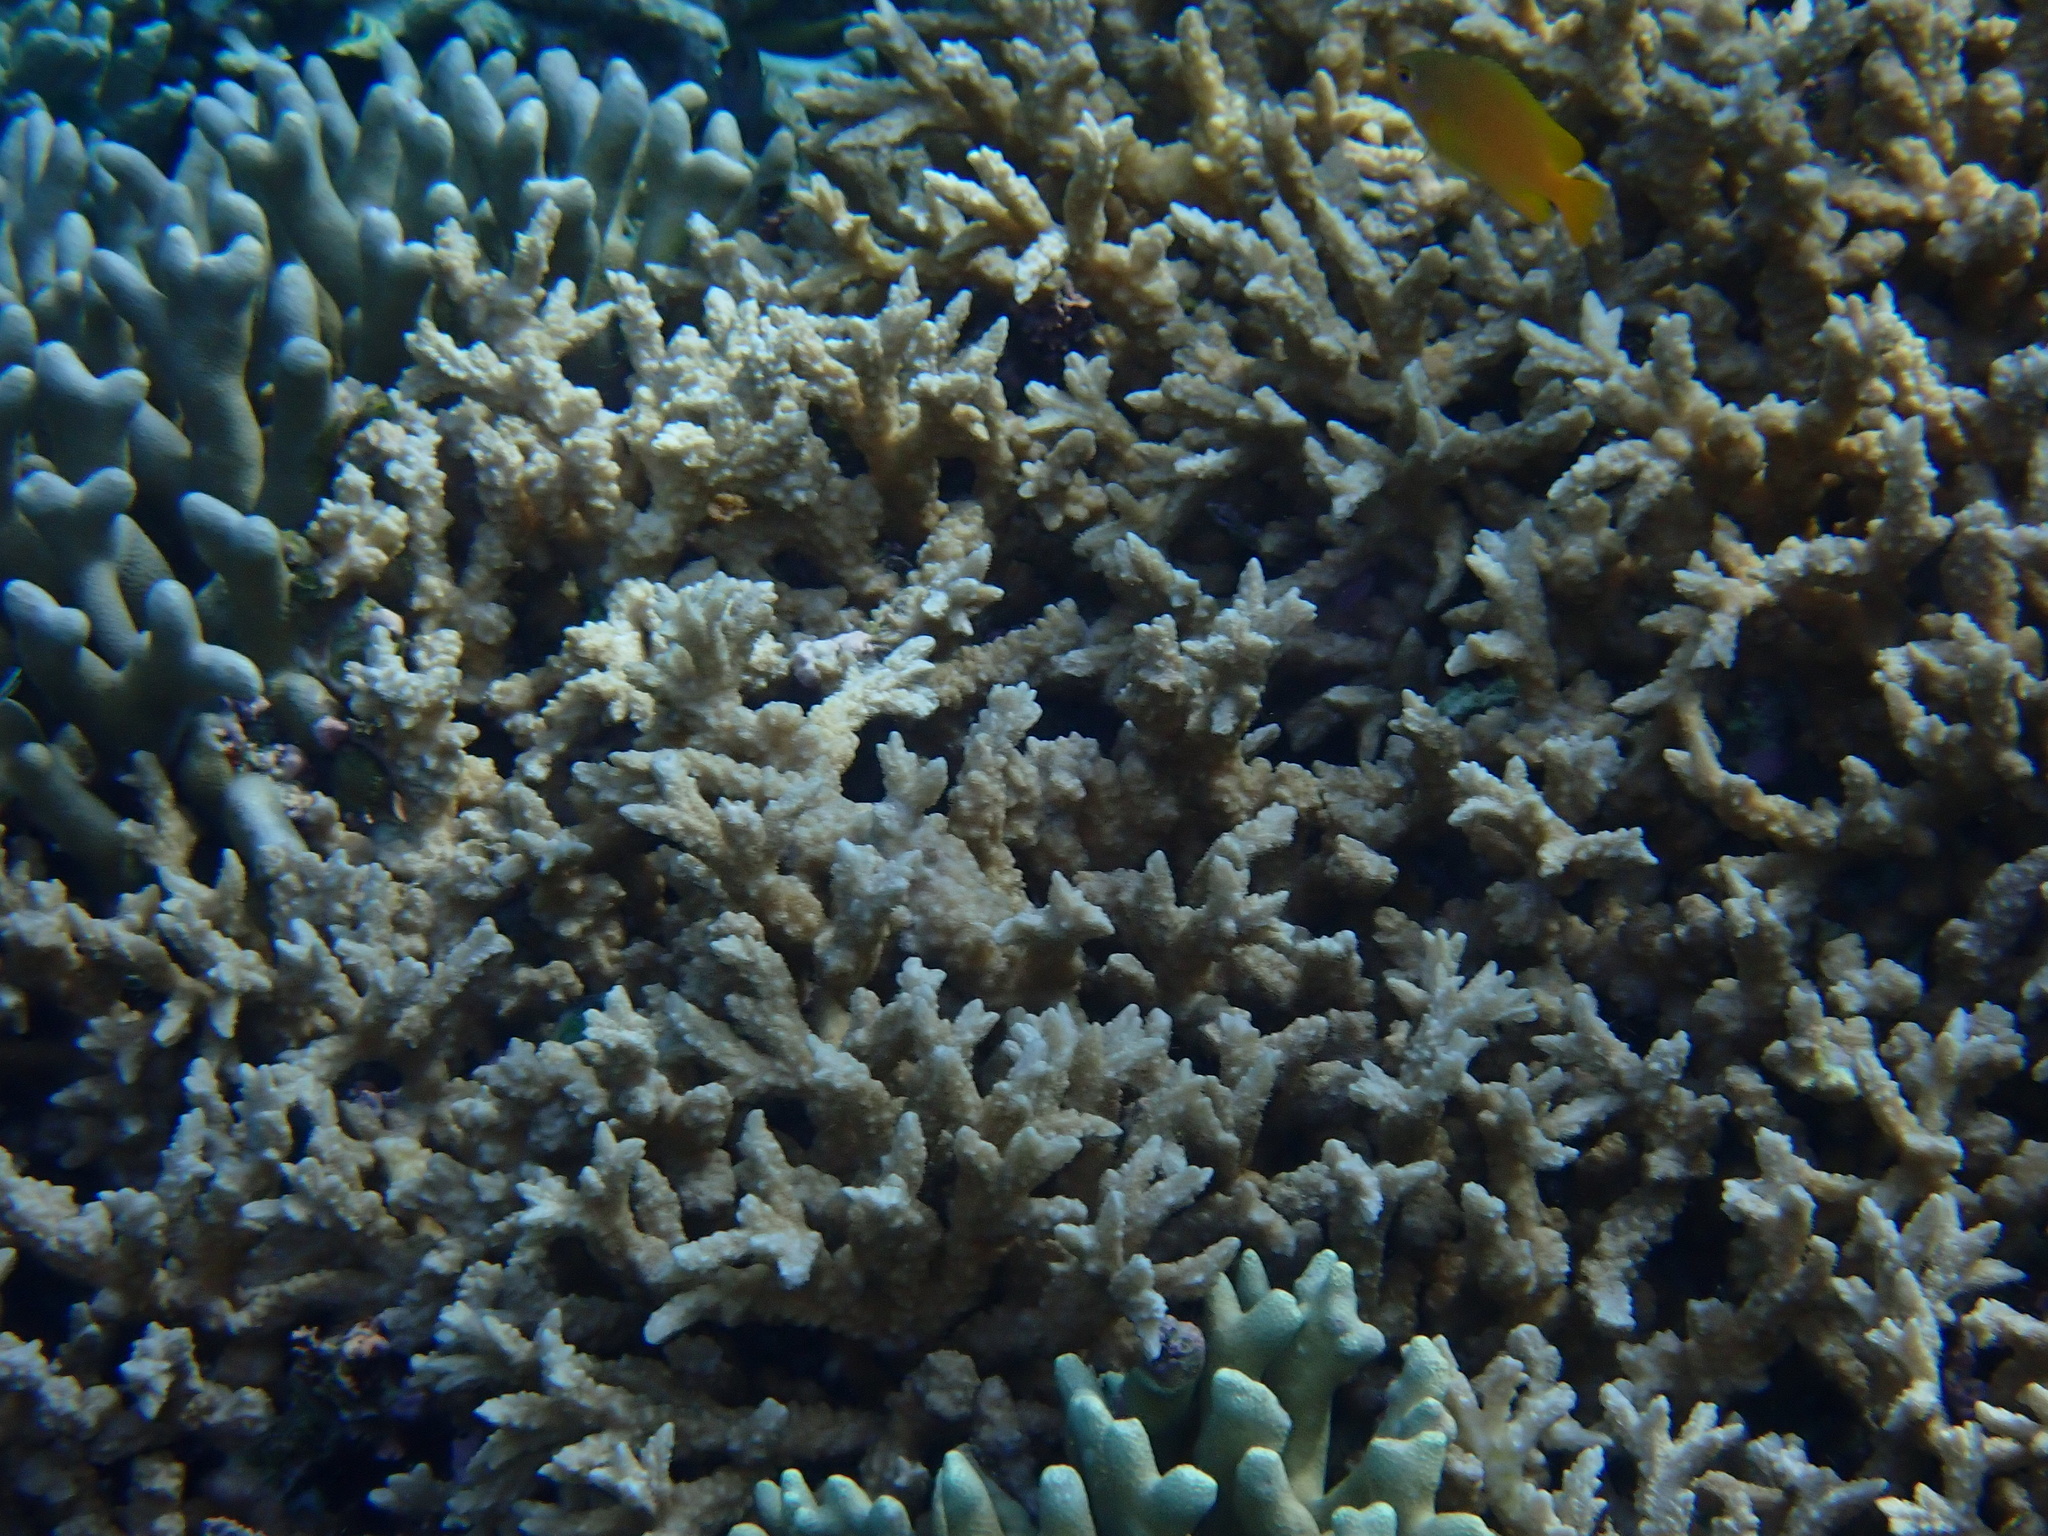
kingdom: Animalia
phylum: Cnidaria
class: Anthozoa
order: Scleractinia
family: Merulinidae
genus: Hydnophora
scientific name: Hydnophora rigida
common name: Spine coral
